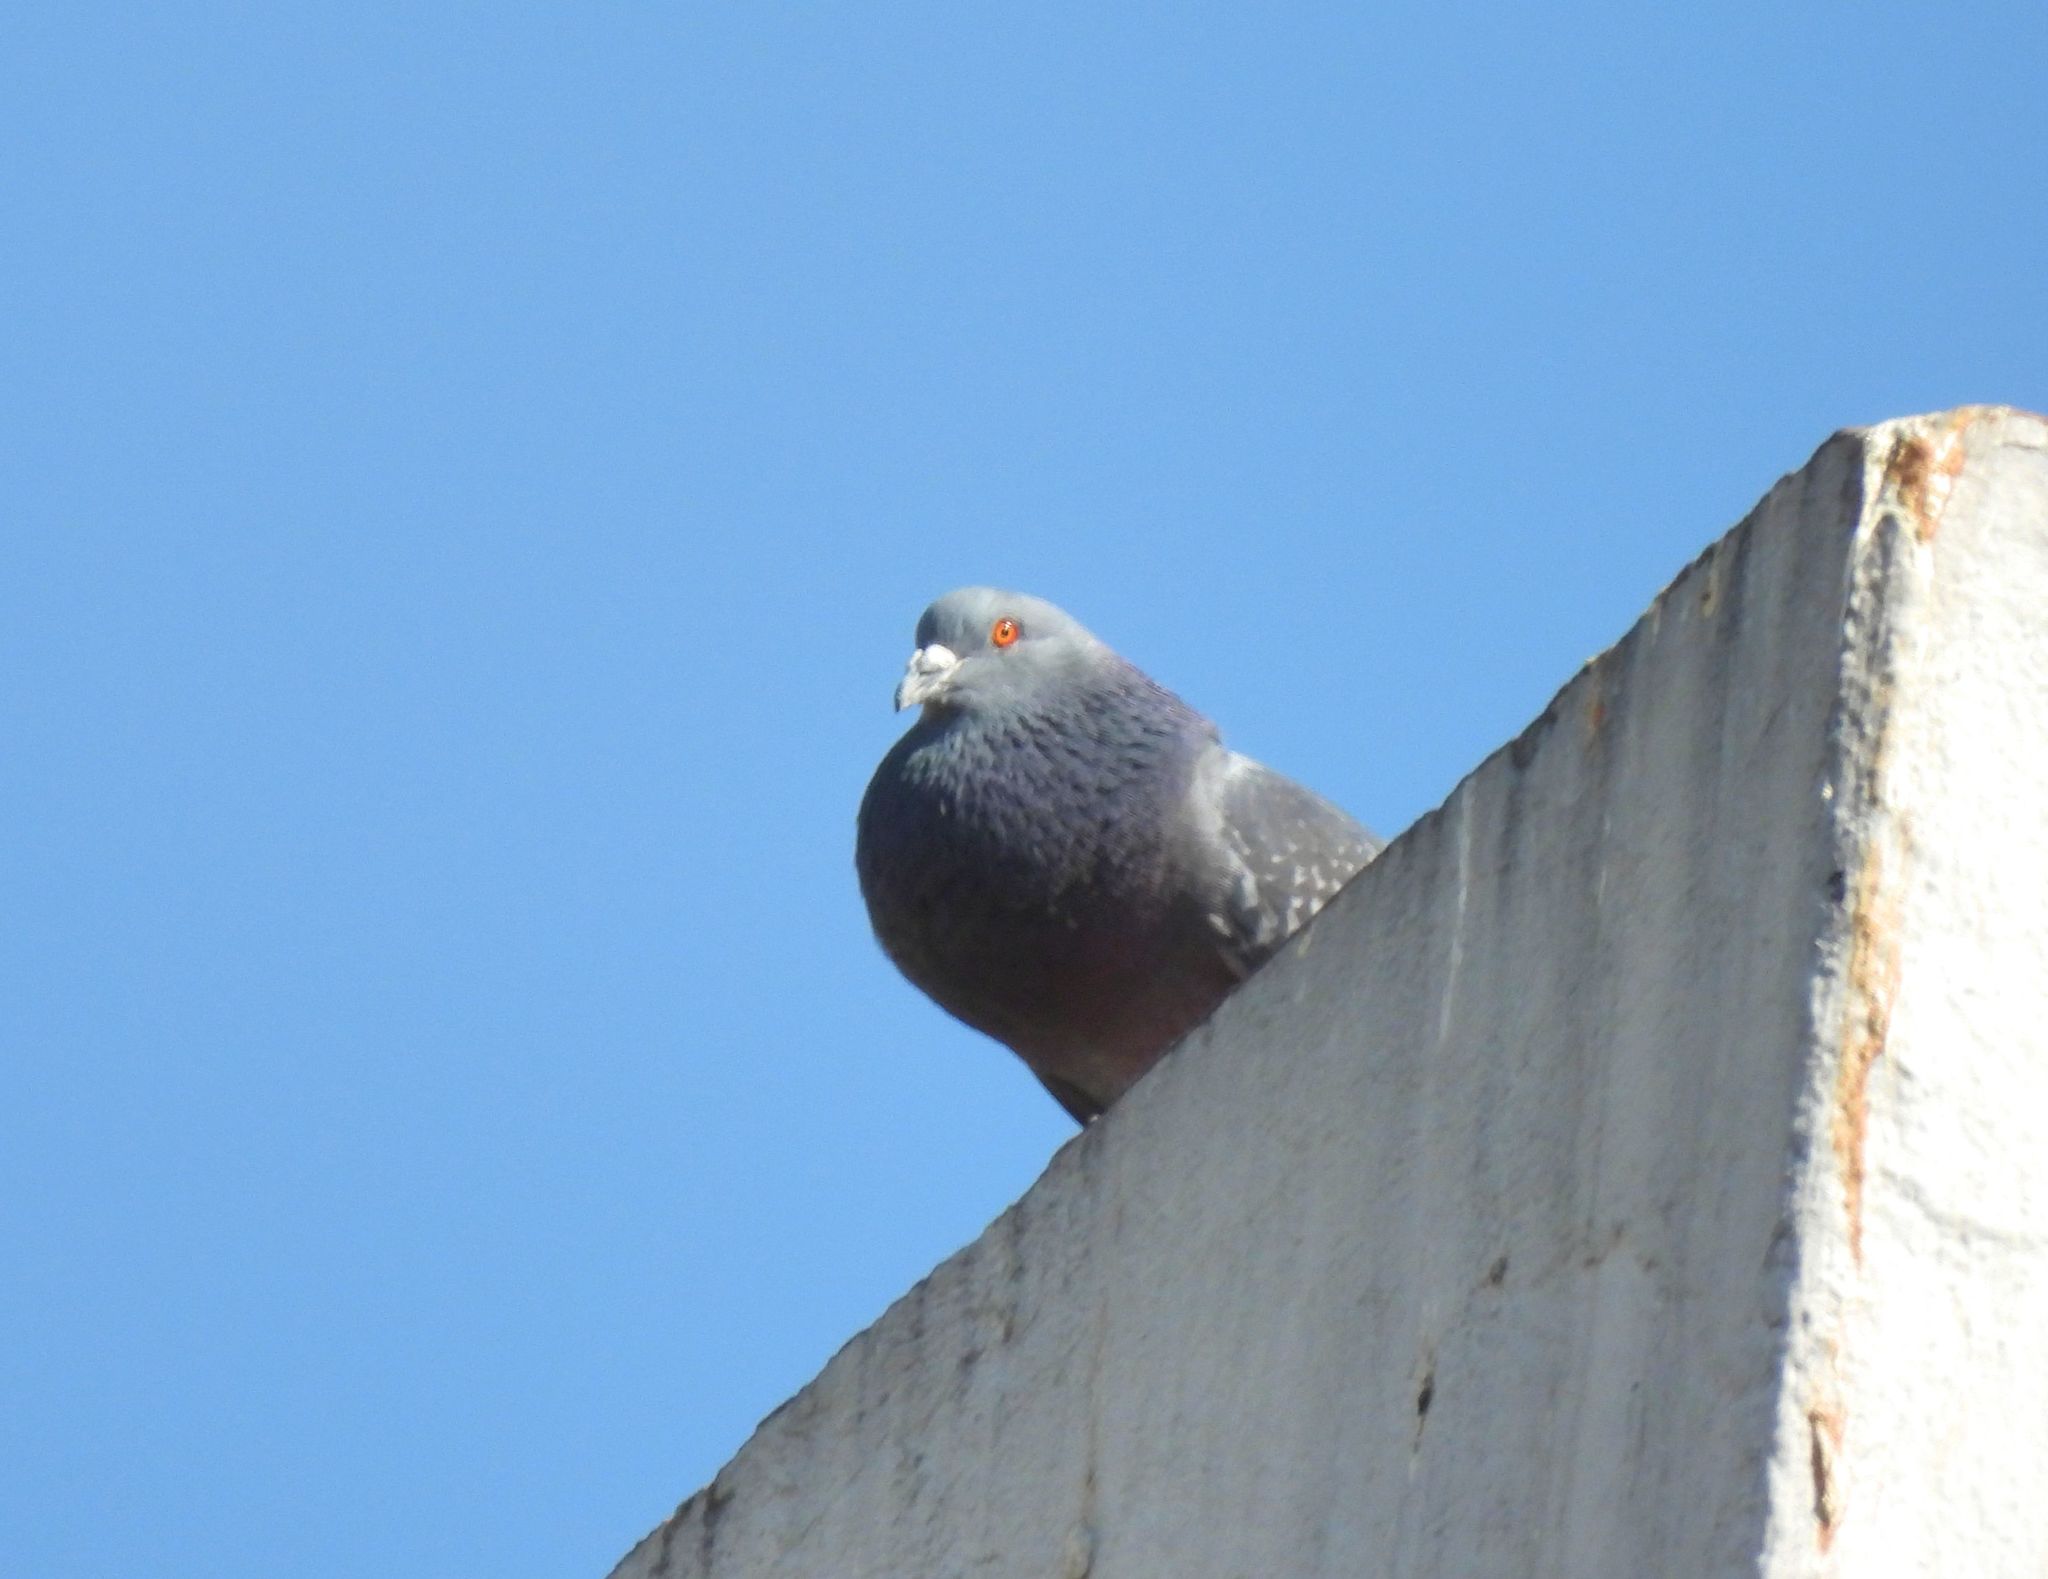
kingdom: Animalia
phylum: Chordata
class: Aves
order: Columbiformes
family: Columbidae
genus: Columba
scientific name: Columba livia
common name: Rock pigeon
